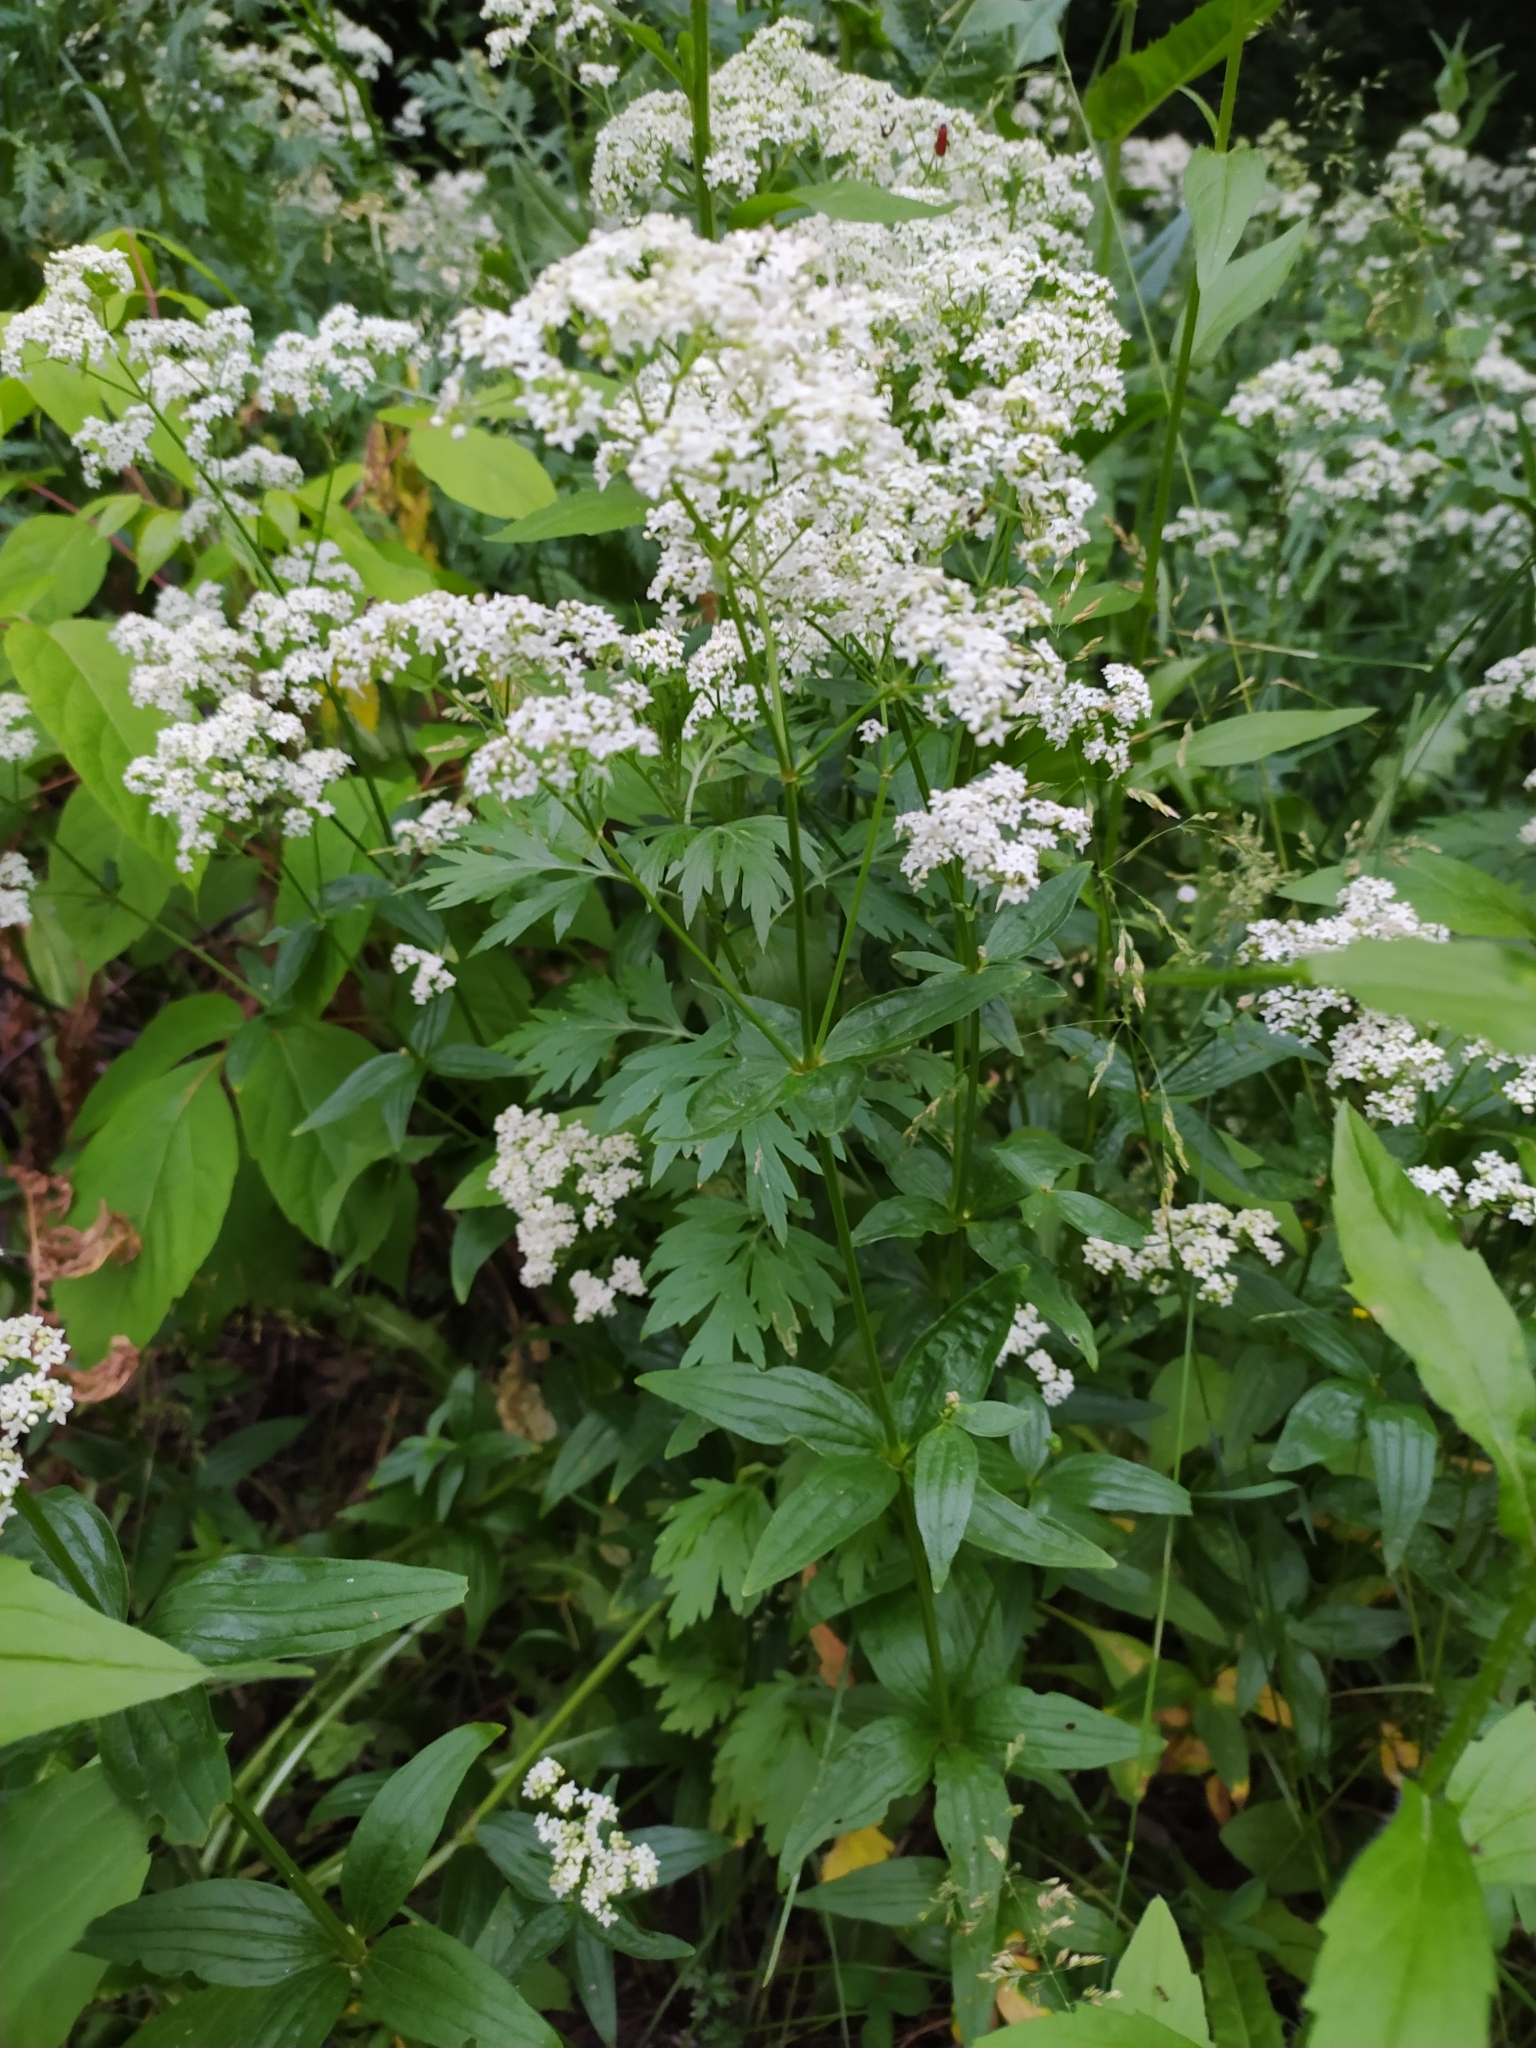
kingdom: Plantae
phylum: Tracheophyta
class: Magnoliopsida
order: Gentianales
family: Rubiaceae
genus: Galium
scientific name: Galium boreale
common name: Northern bedstraw
